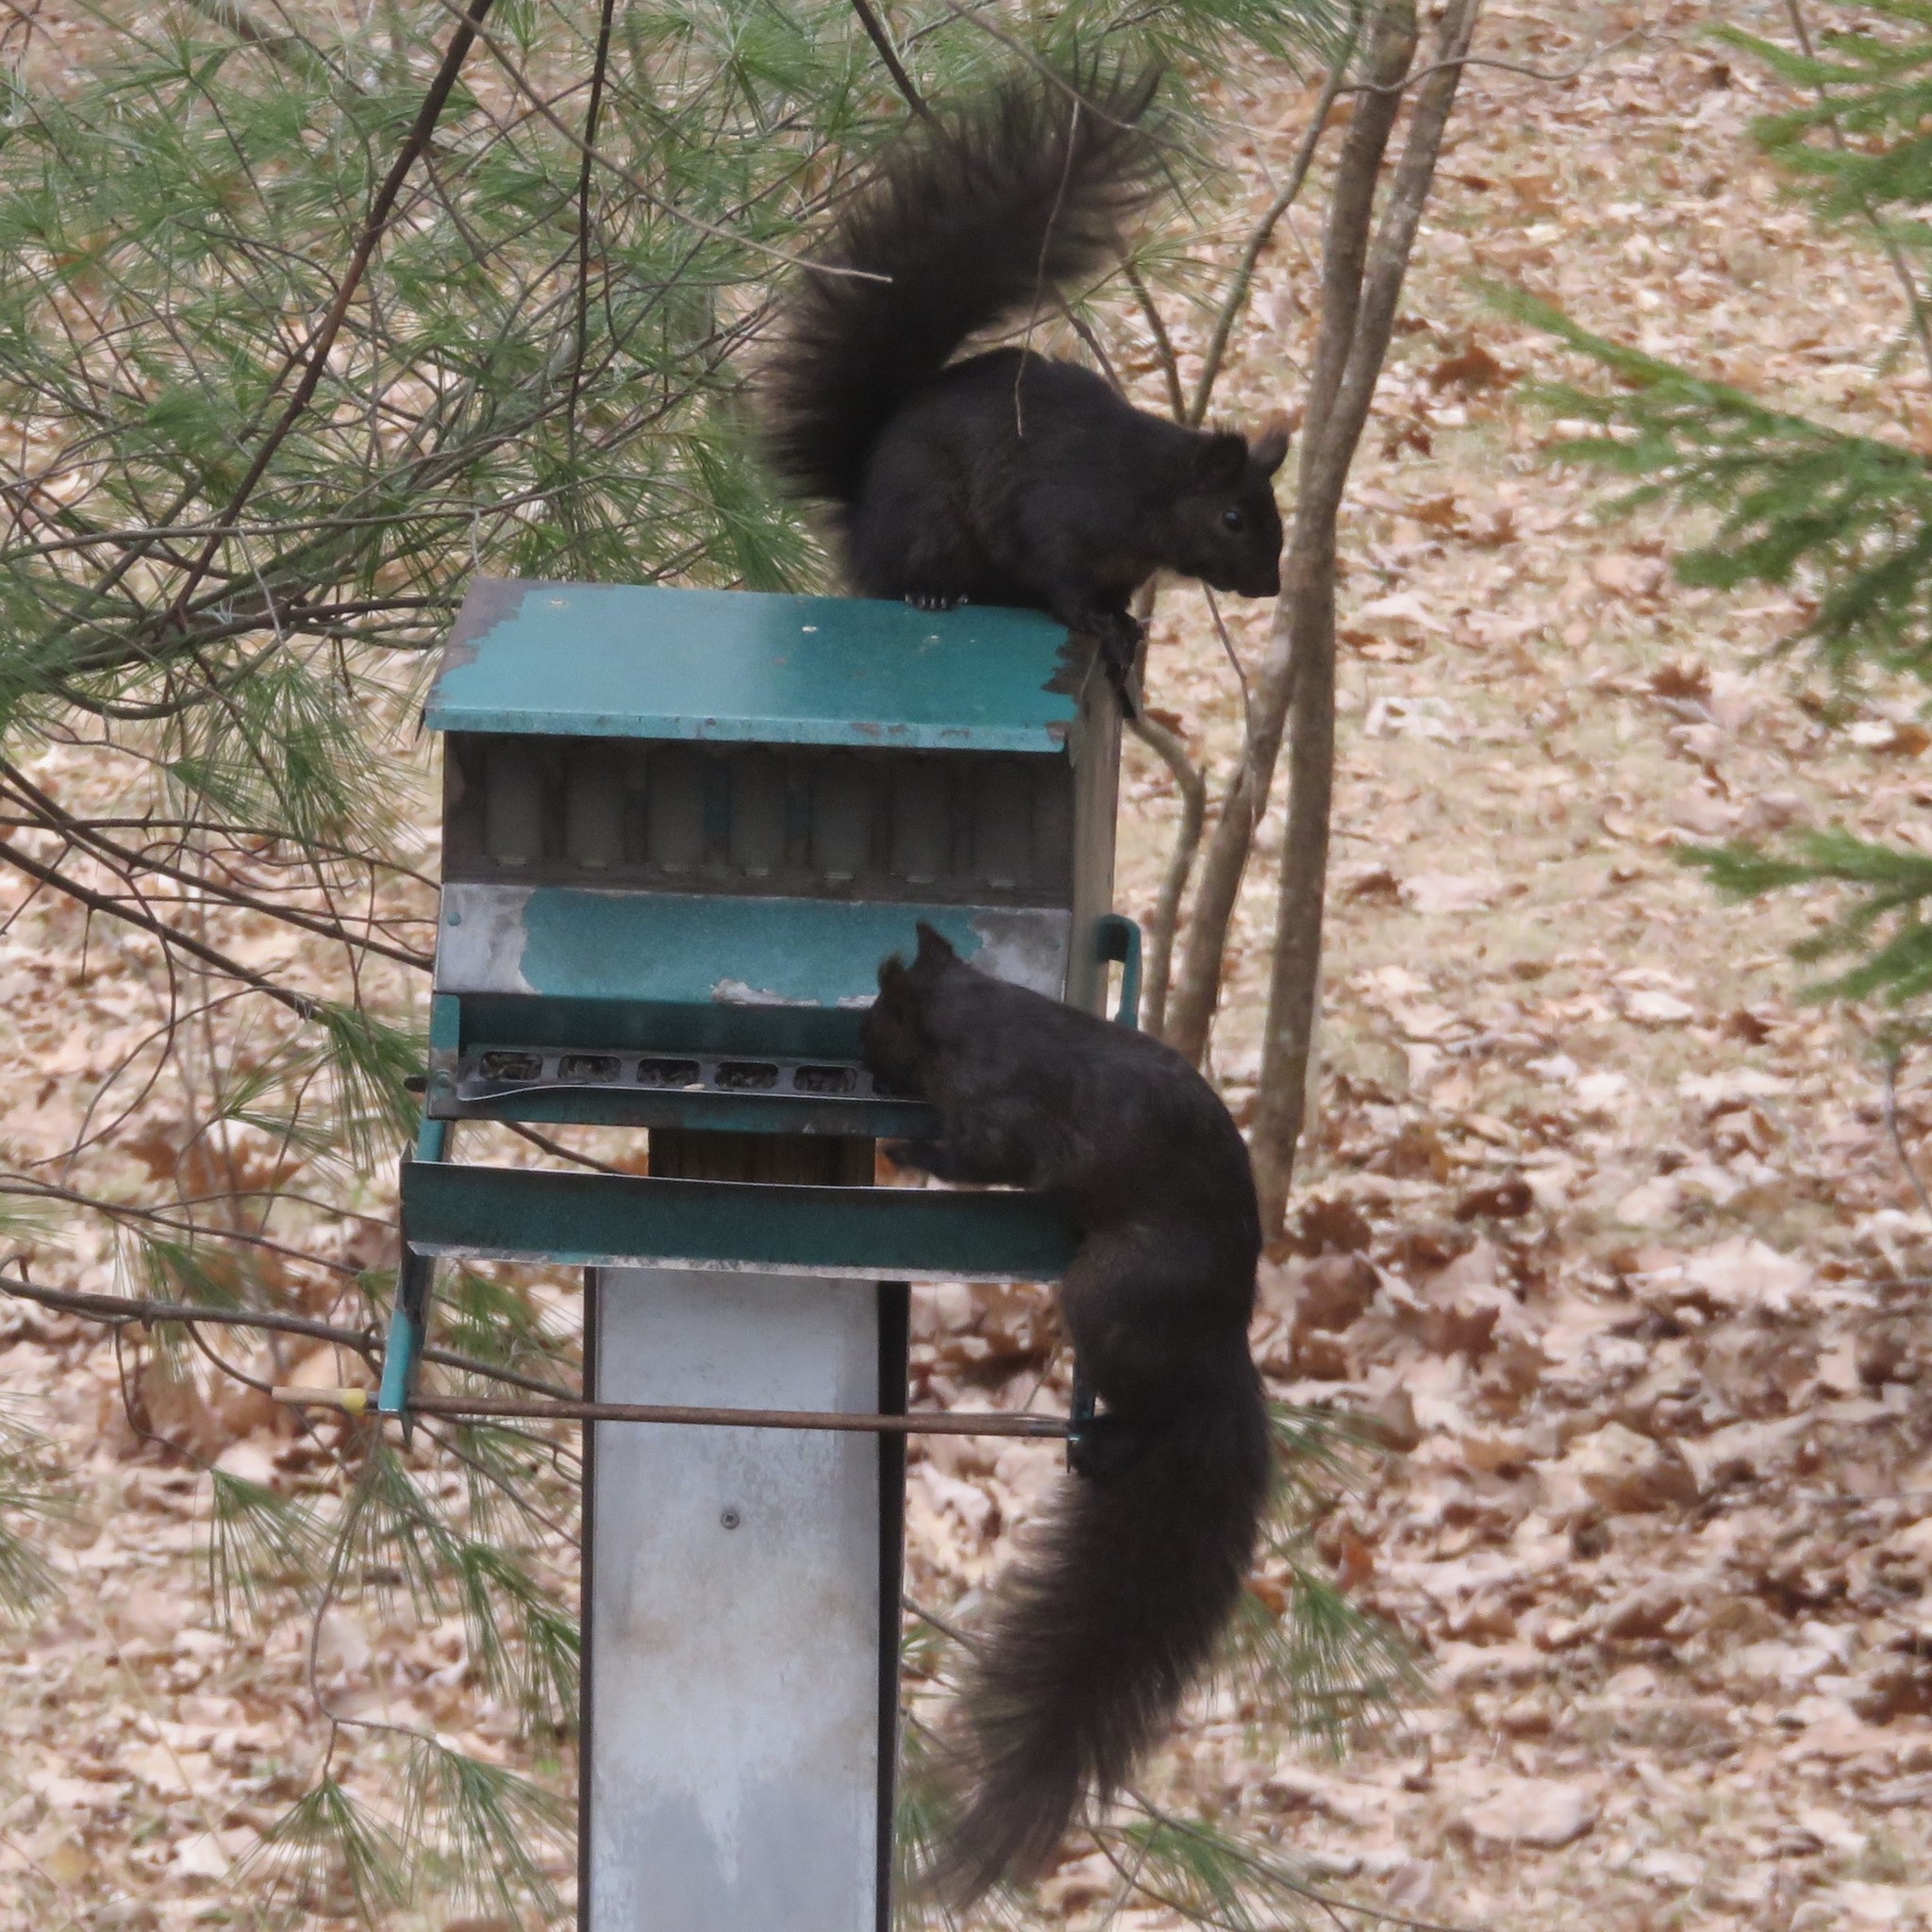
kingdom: Animalia
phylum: Chordata
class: Mammalia
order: Rodentia
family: Sciuridae
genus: Sciurus
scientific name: Sciurus carolinensis
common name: Eastern gray squirrel
